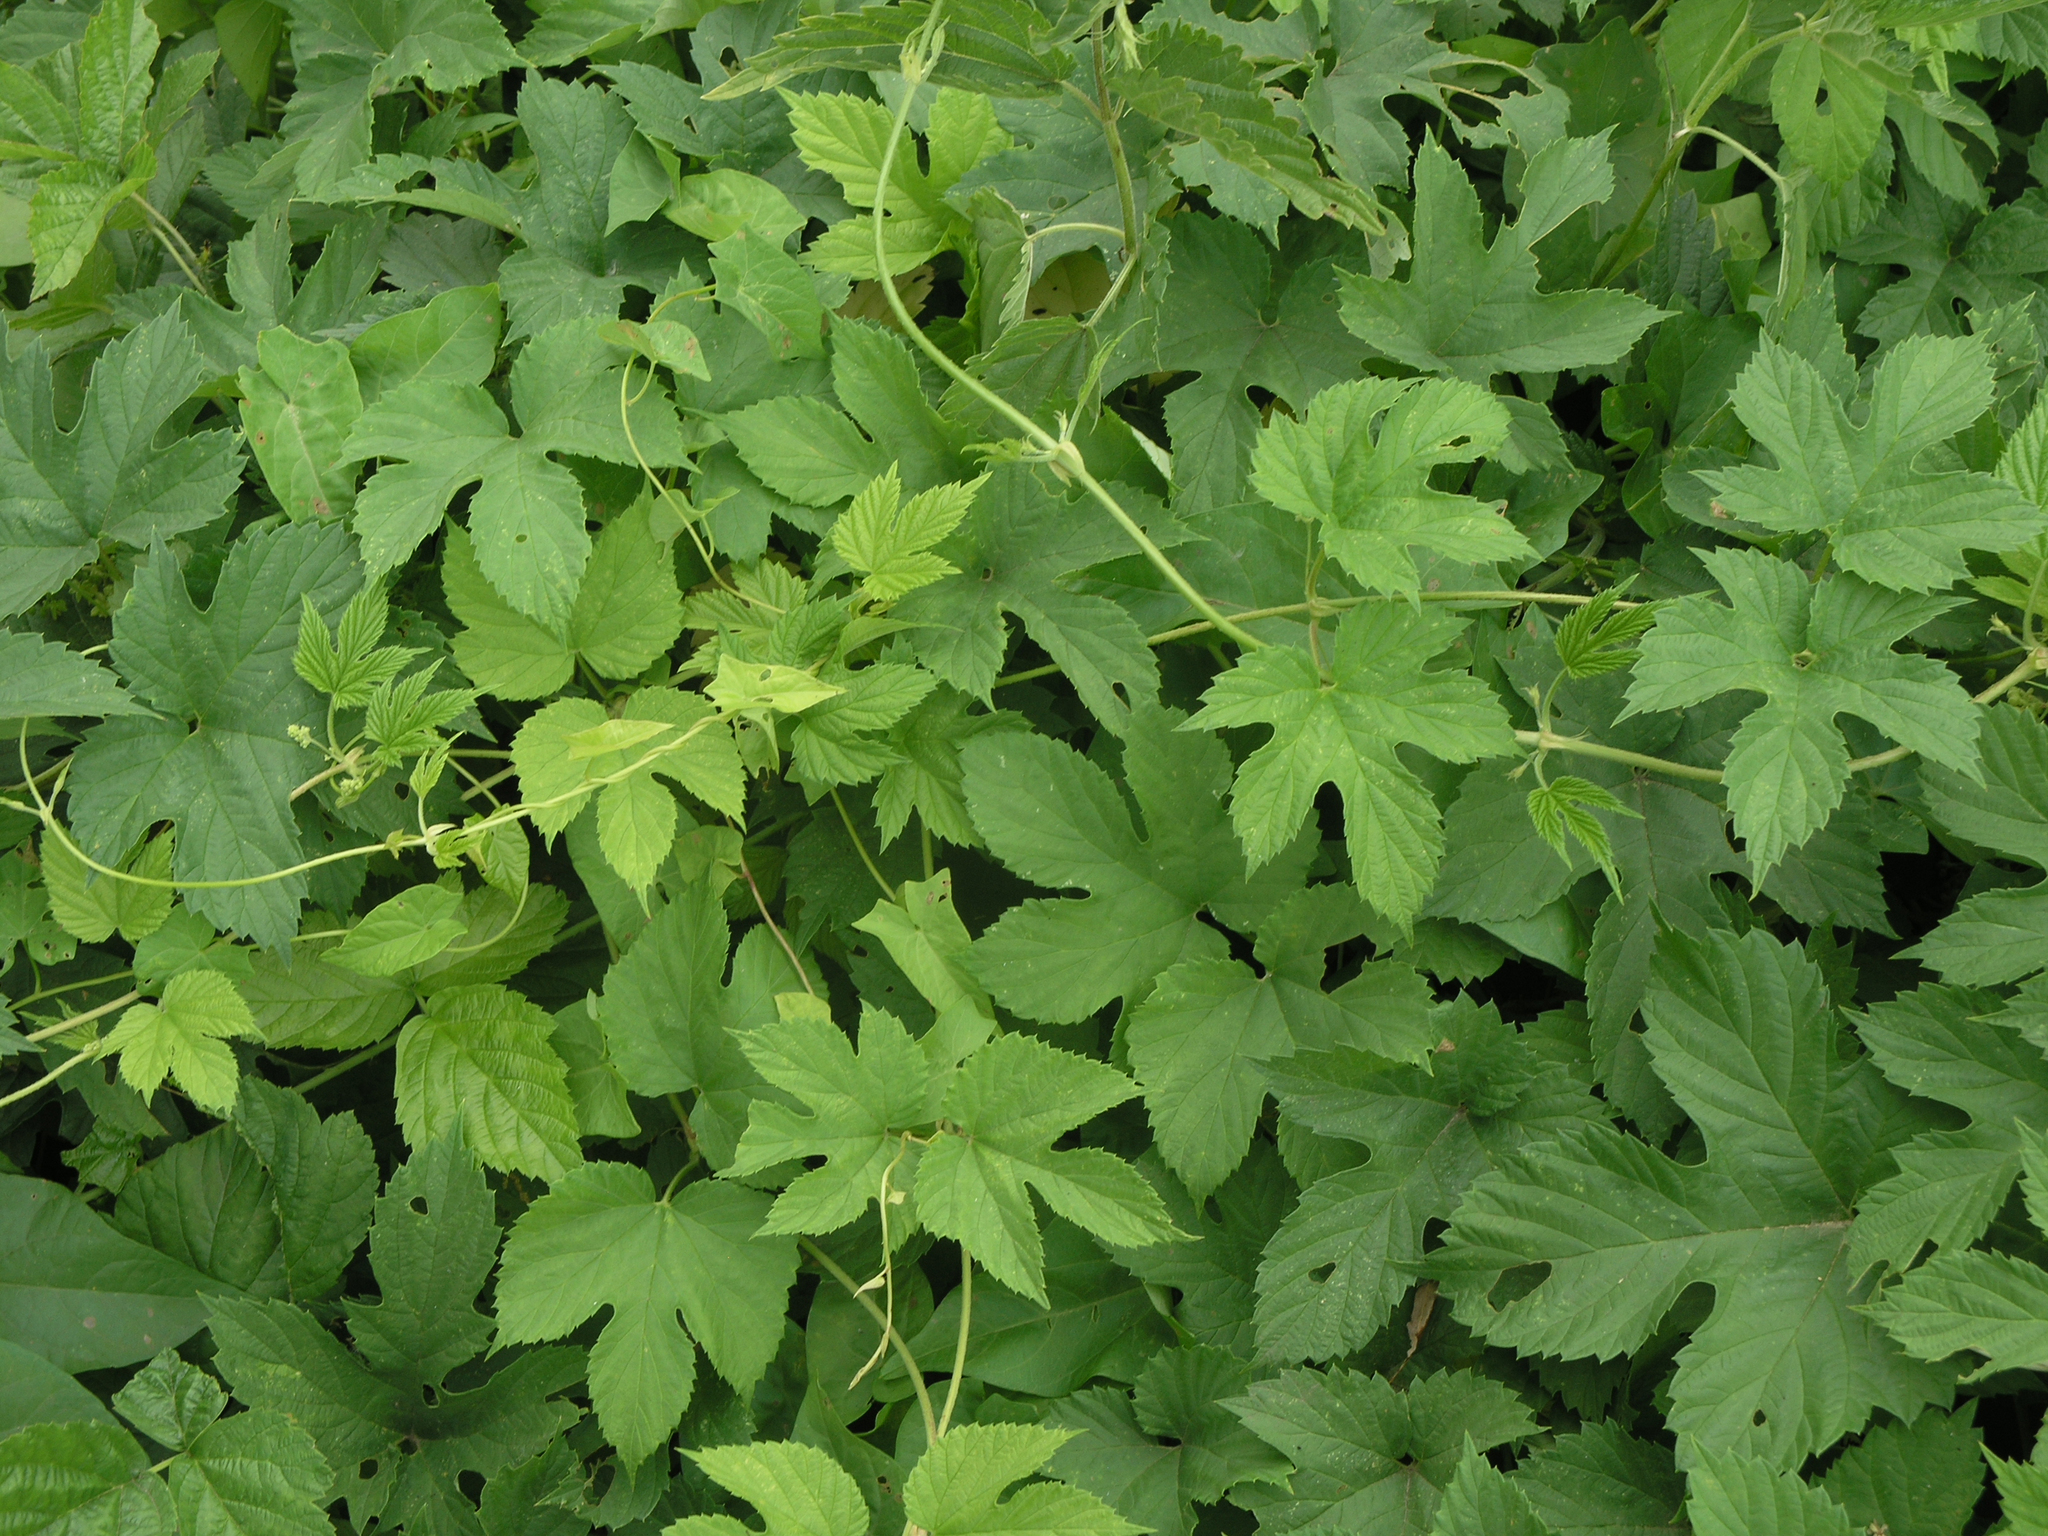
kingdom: Plantae
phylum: Tracheophyta
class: Magnoliopsida
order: Rosales
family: Cannabaceae
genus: Humulus
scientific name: Humulus lupulus
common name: Hop
